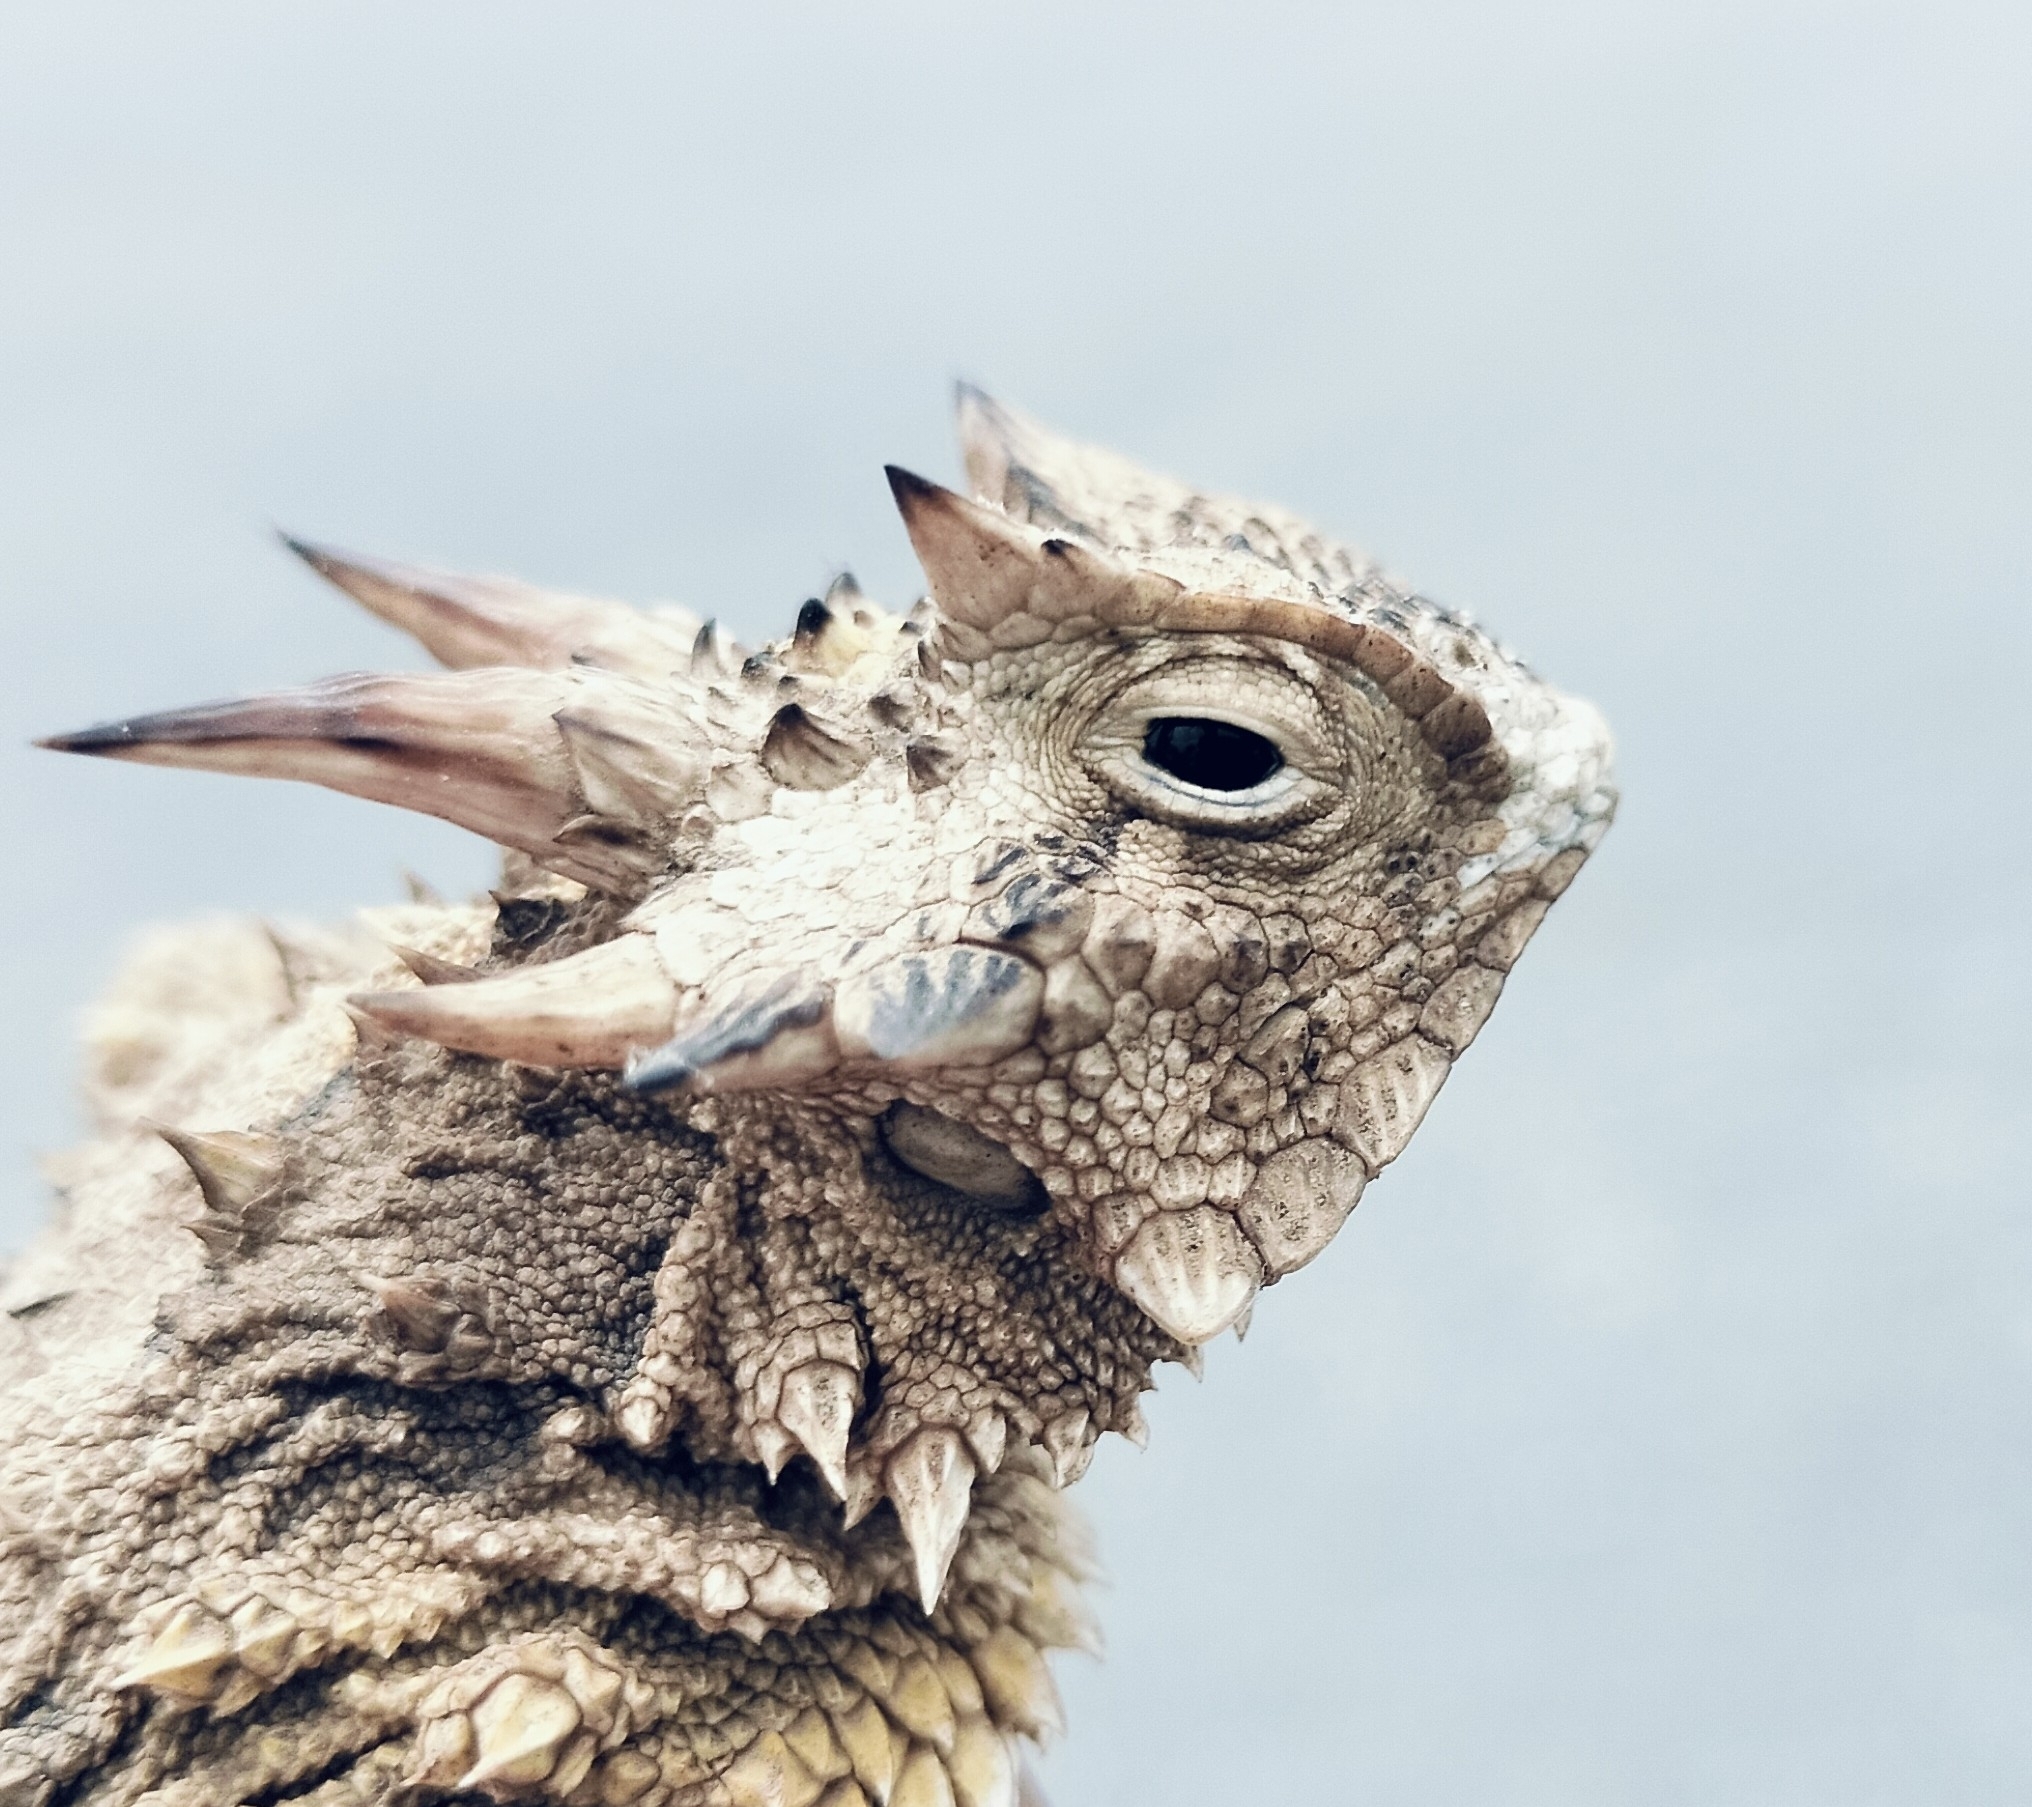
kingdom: Animalia
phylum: Chordata
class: Squamata
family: Phrynosomatidae
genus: Phrynosoma
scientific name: Phrynosoma cornutum
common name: Texas horned lizard
